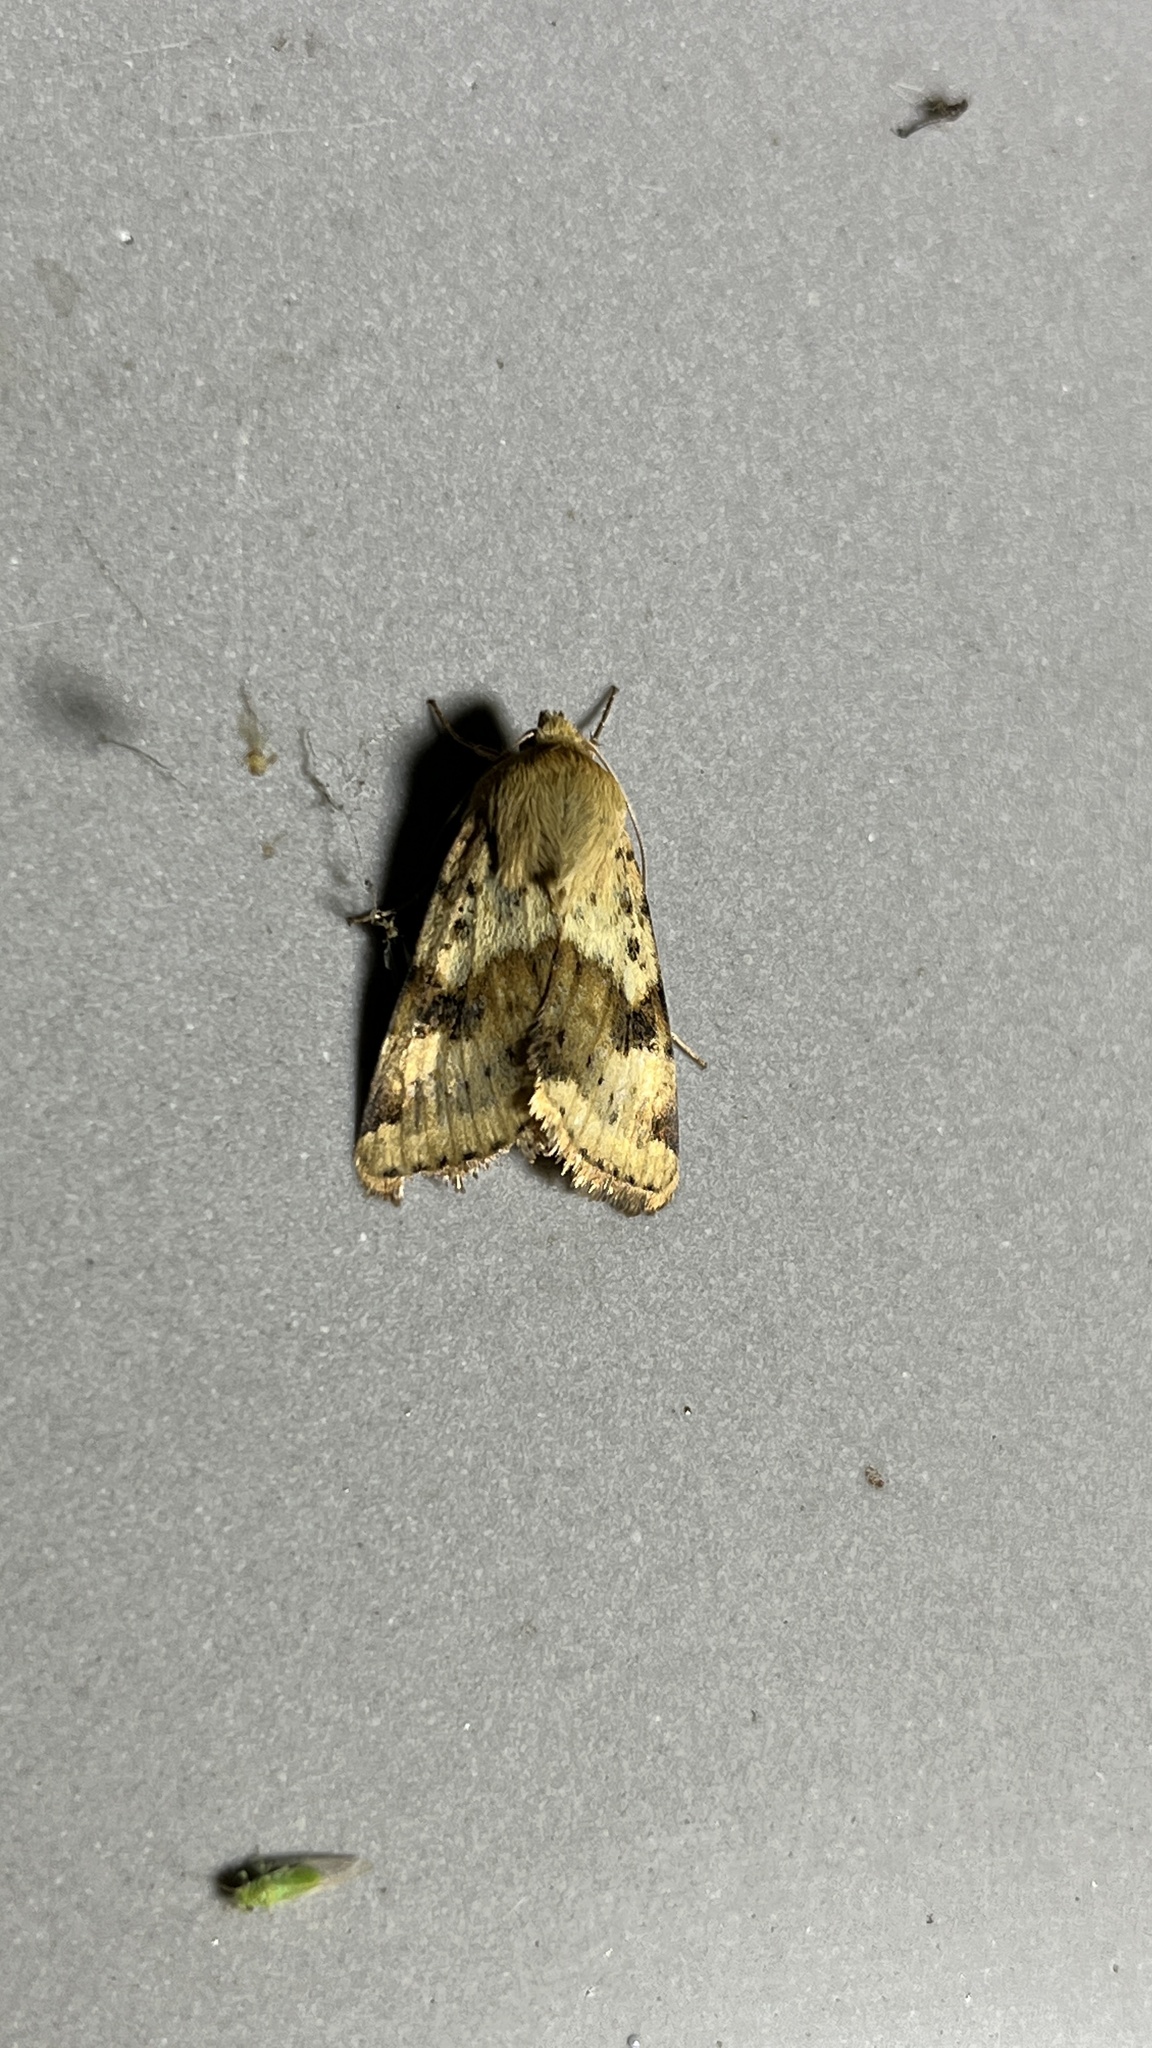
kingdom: Animalia
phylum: Arthropoda
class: Insecta
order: Lepidoptera
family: Noctuidae
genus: Heliothis
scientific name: Heliothis viriplaca
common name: Marbled clover
